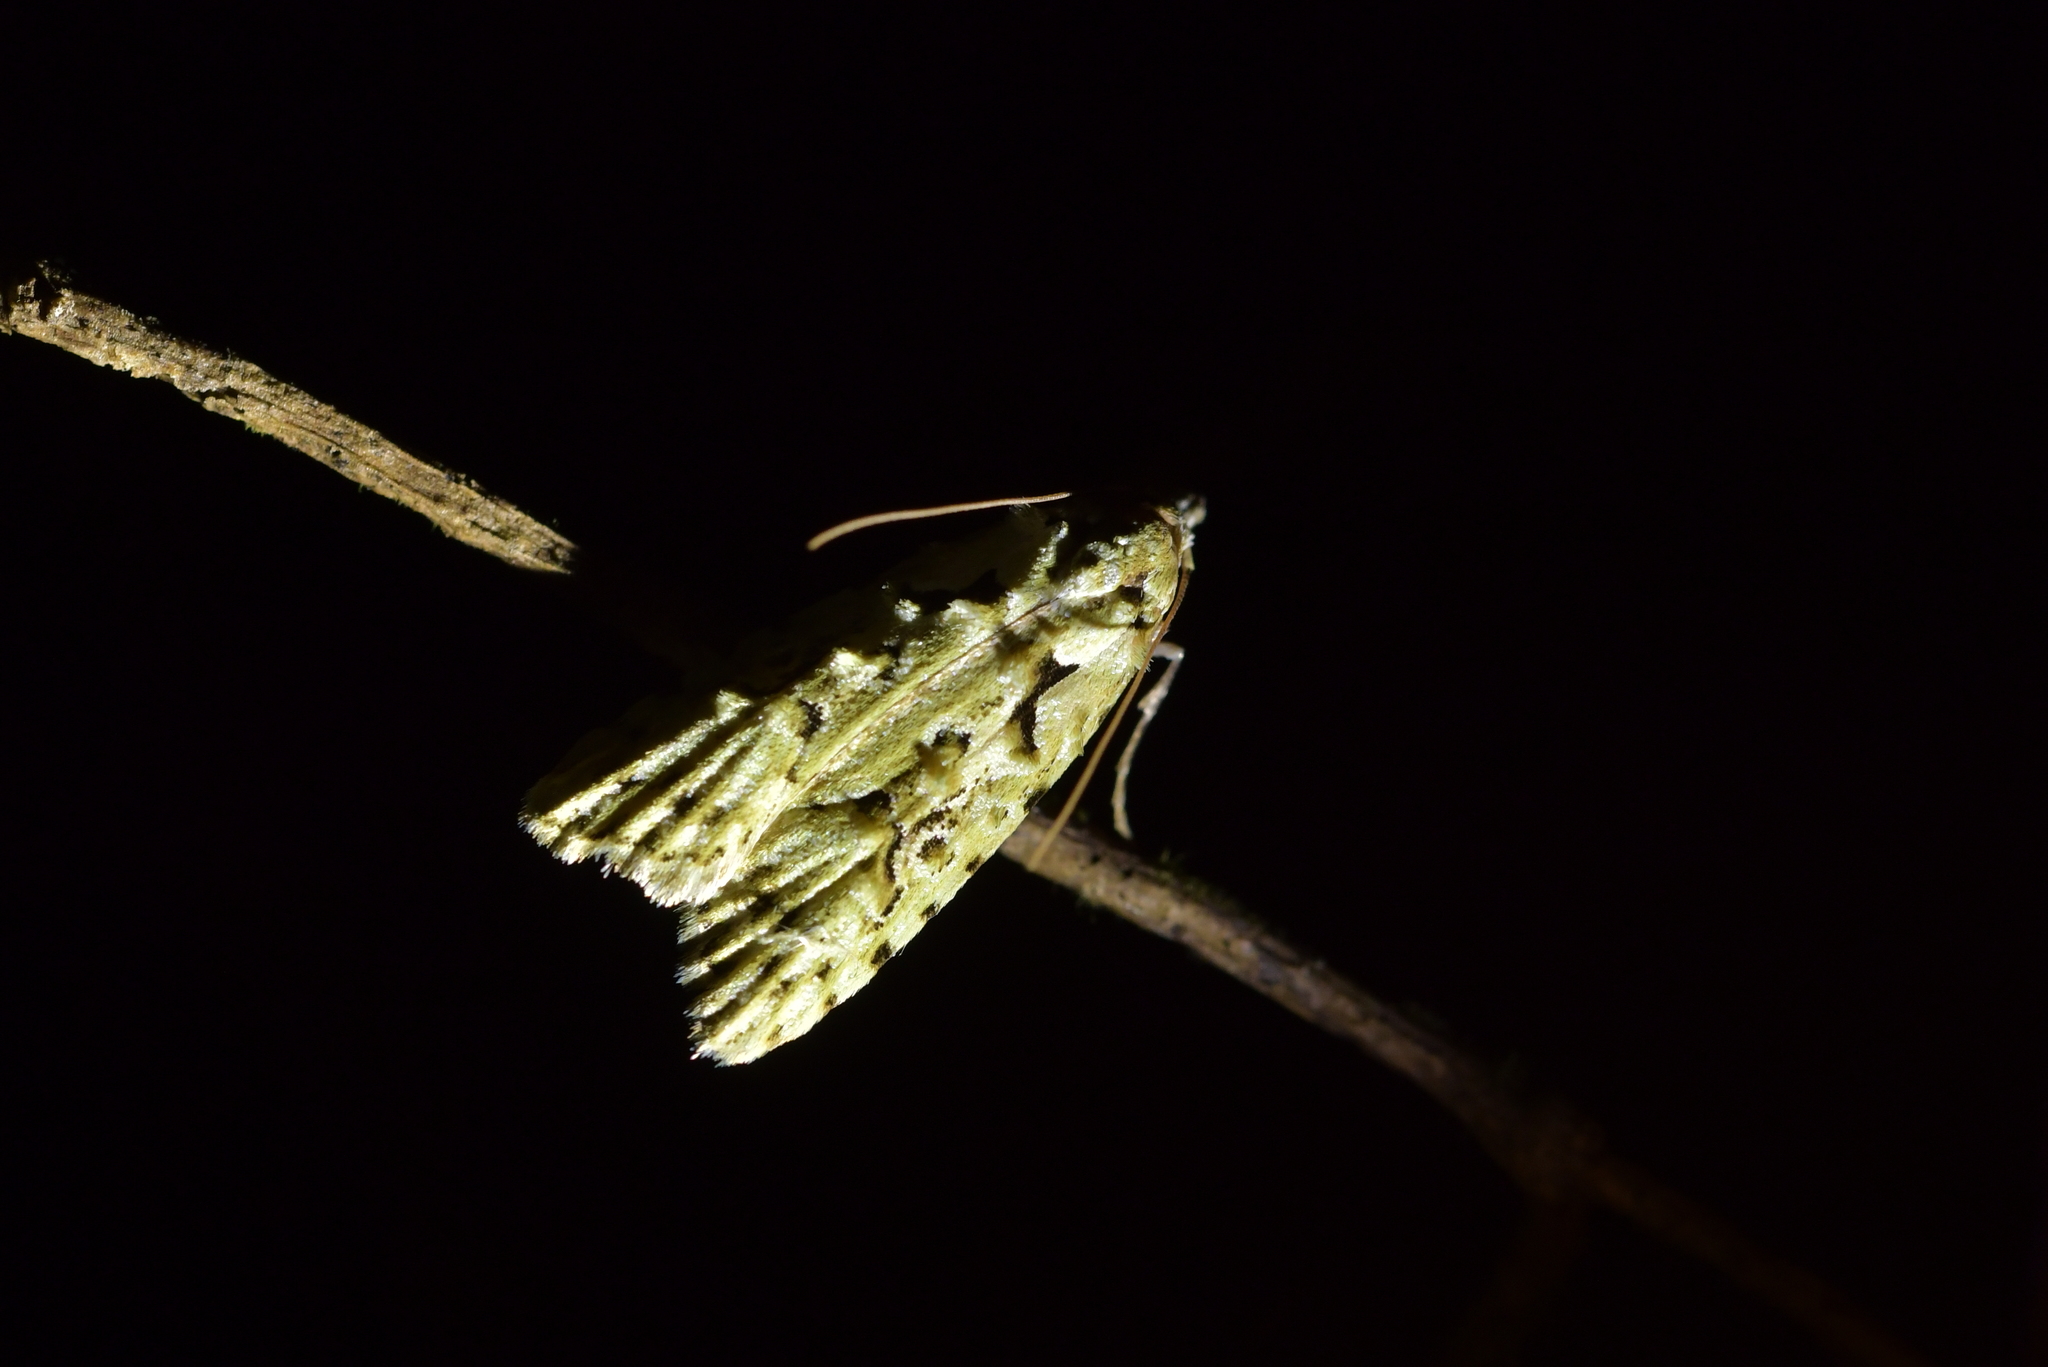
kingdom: Animalia
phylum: Arthropoda
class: Insecta
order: Lepidoptera
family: Carposinidae
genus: Carposina
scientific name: Carposina Heterocrossa eriphylla
